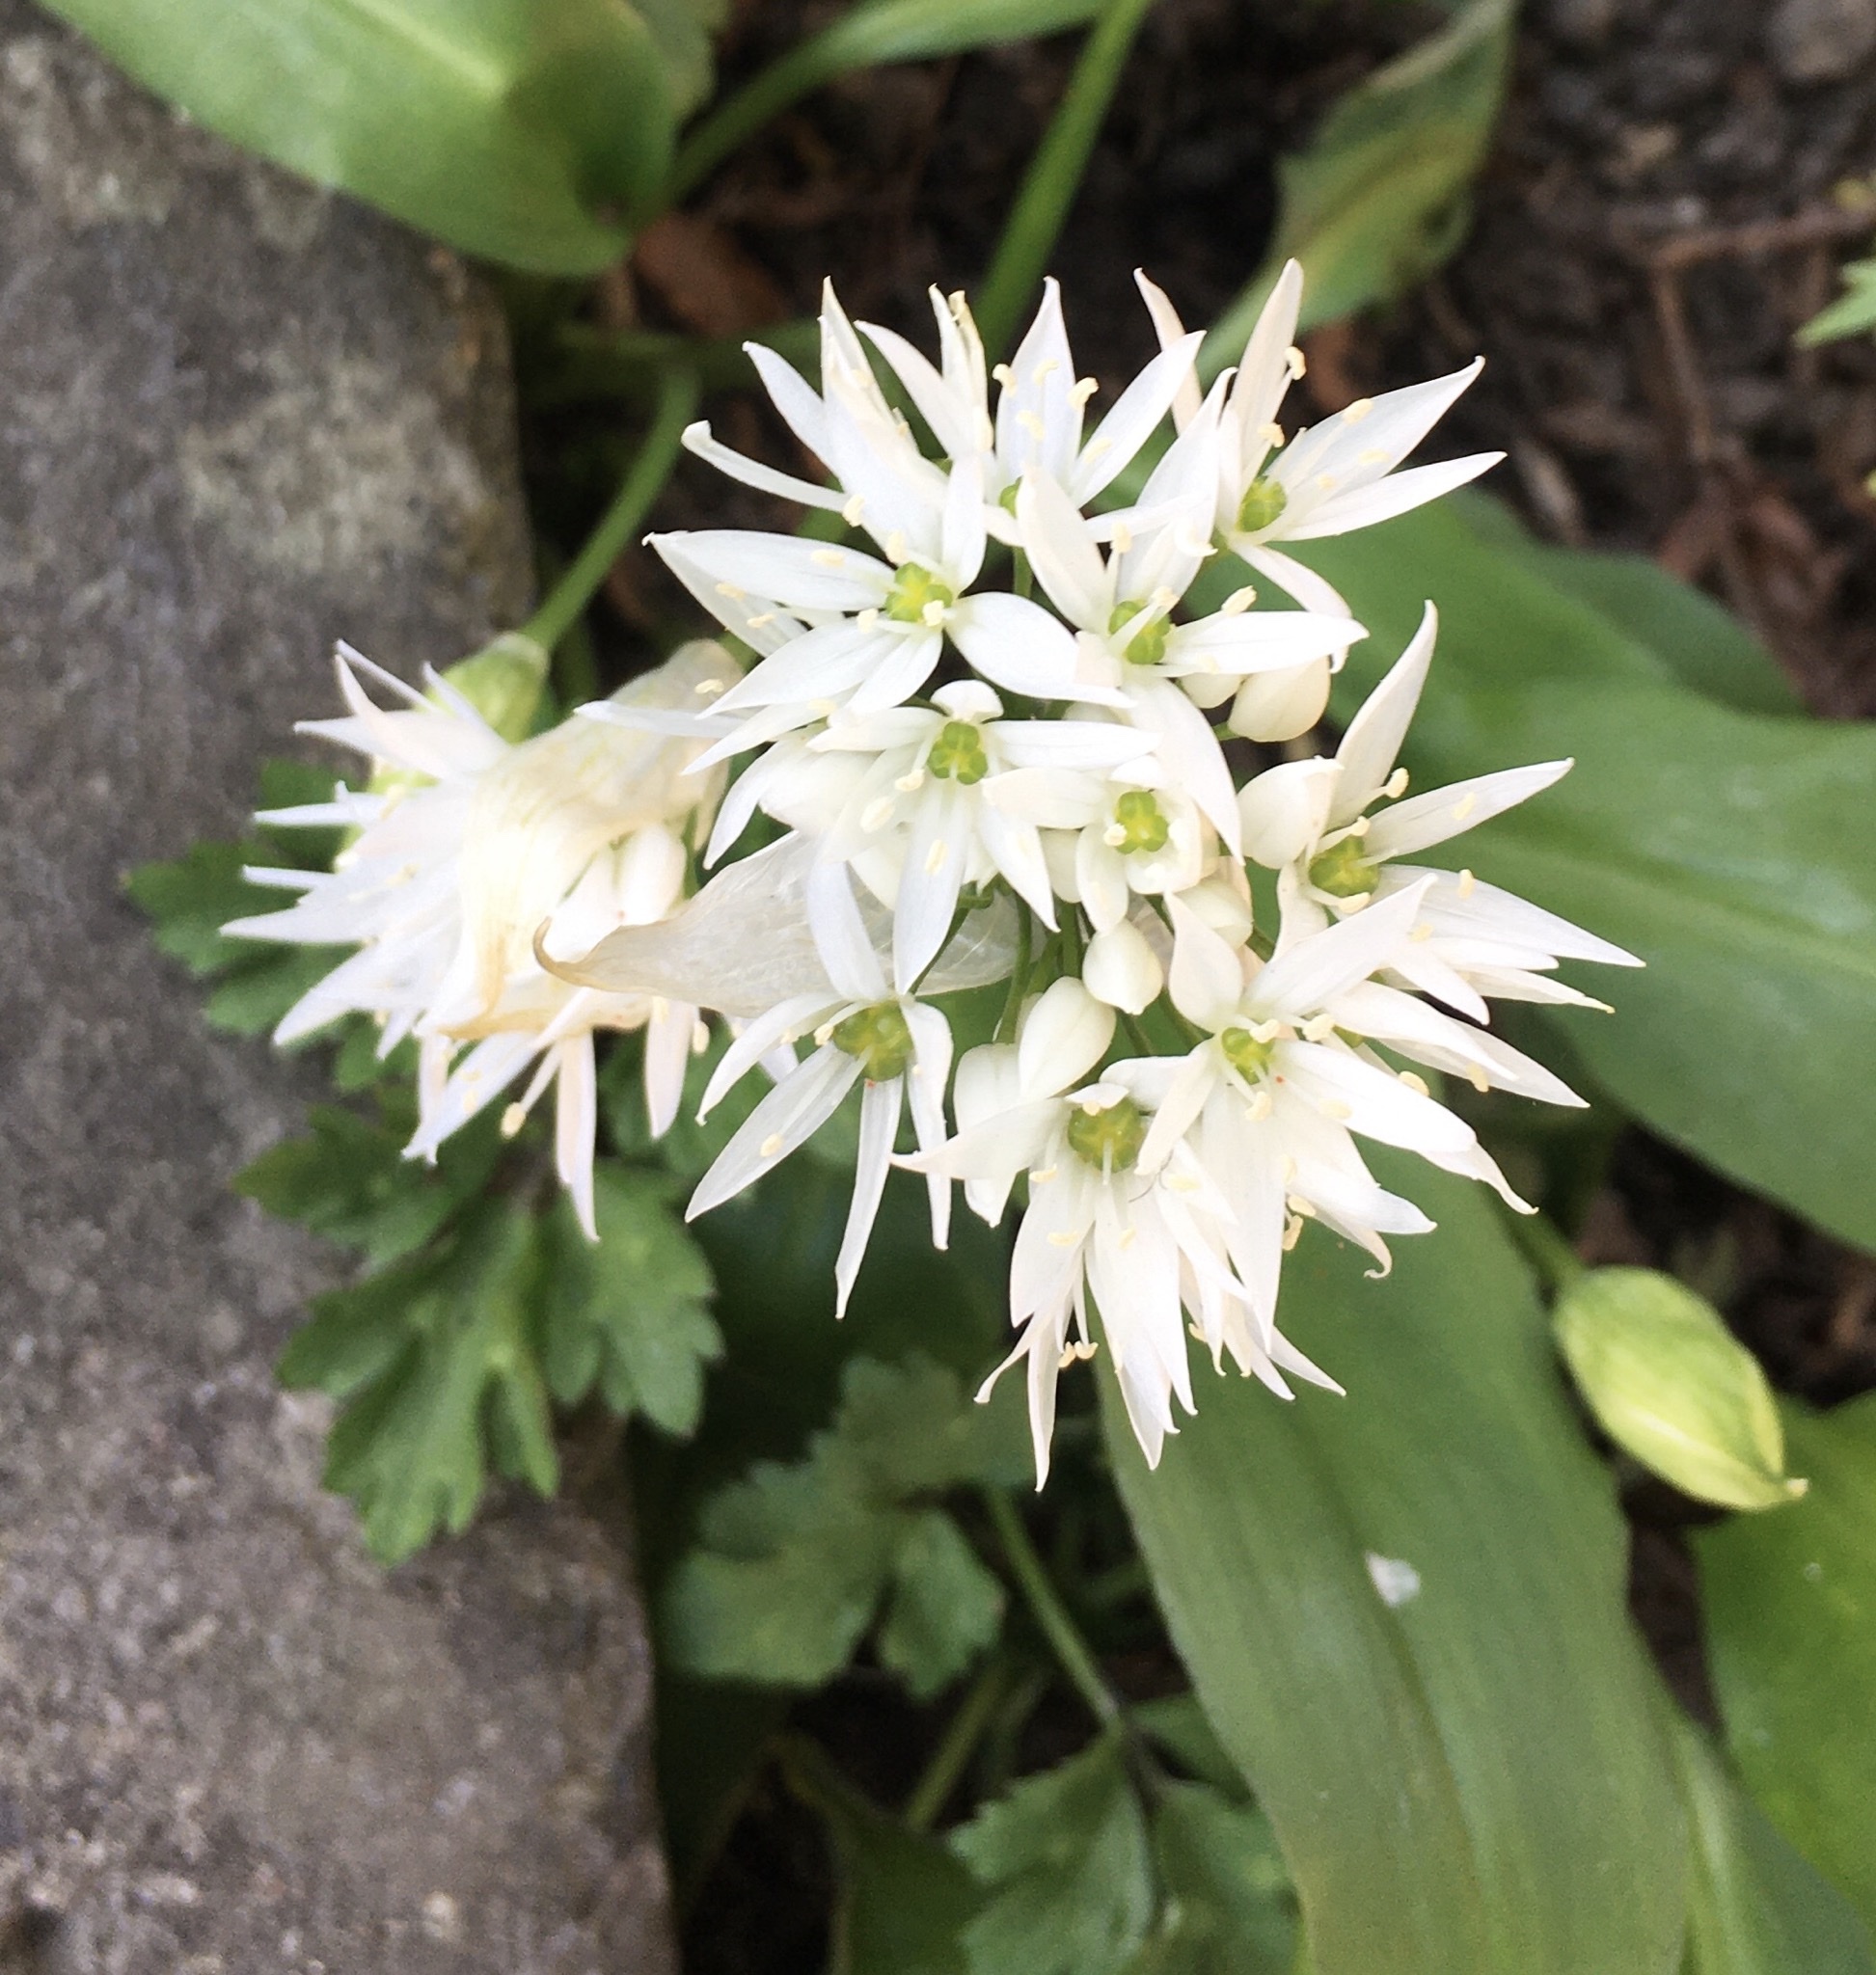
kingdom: Plantae
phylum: Tracheophyta
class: Liliopsida
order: Asparagales
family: Amaryllidaceae
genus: Allium
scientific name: Allium ursinum
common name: Ramsons
